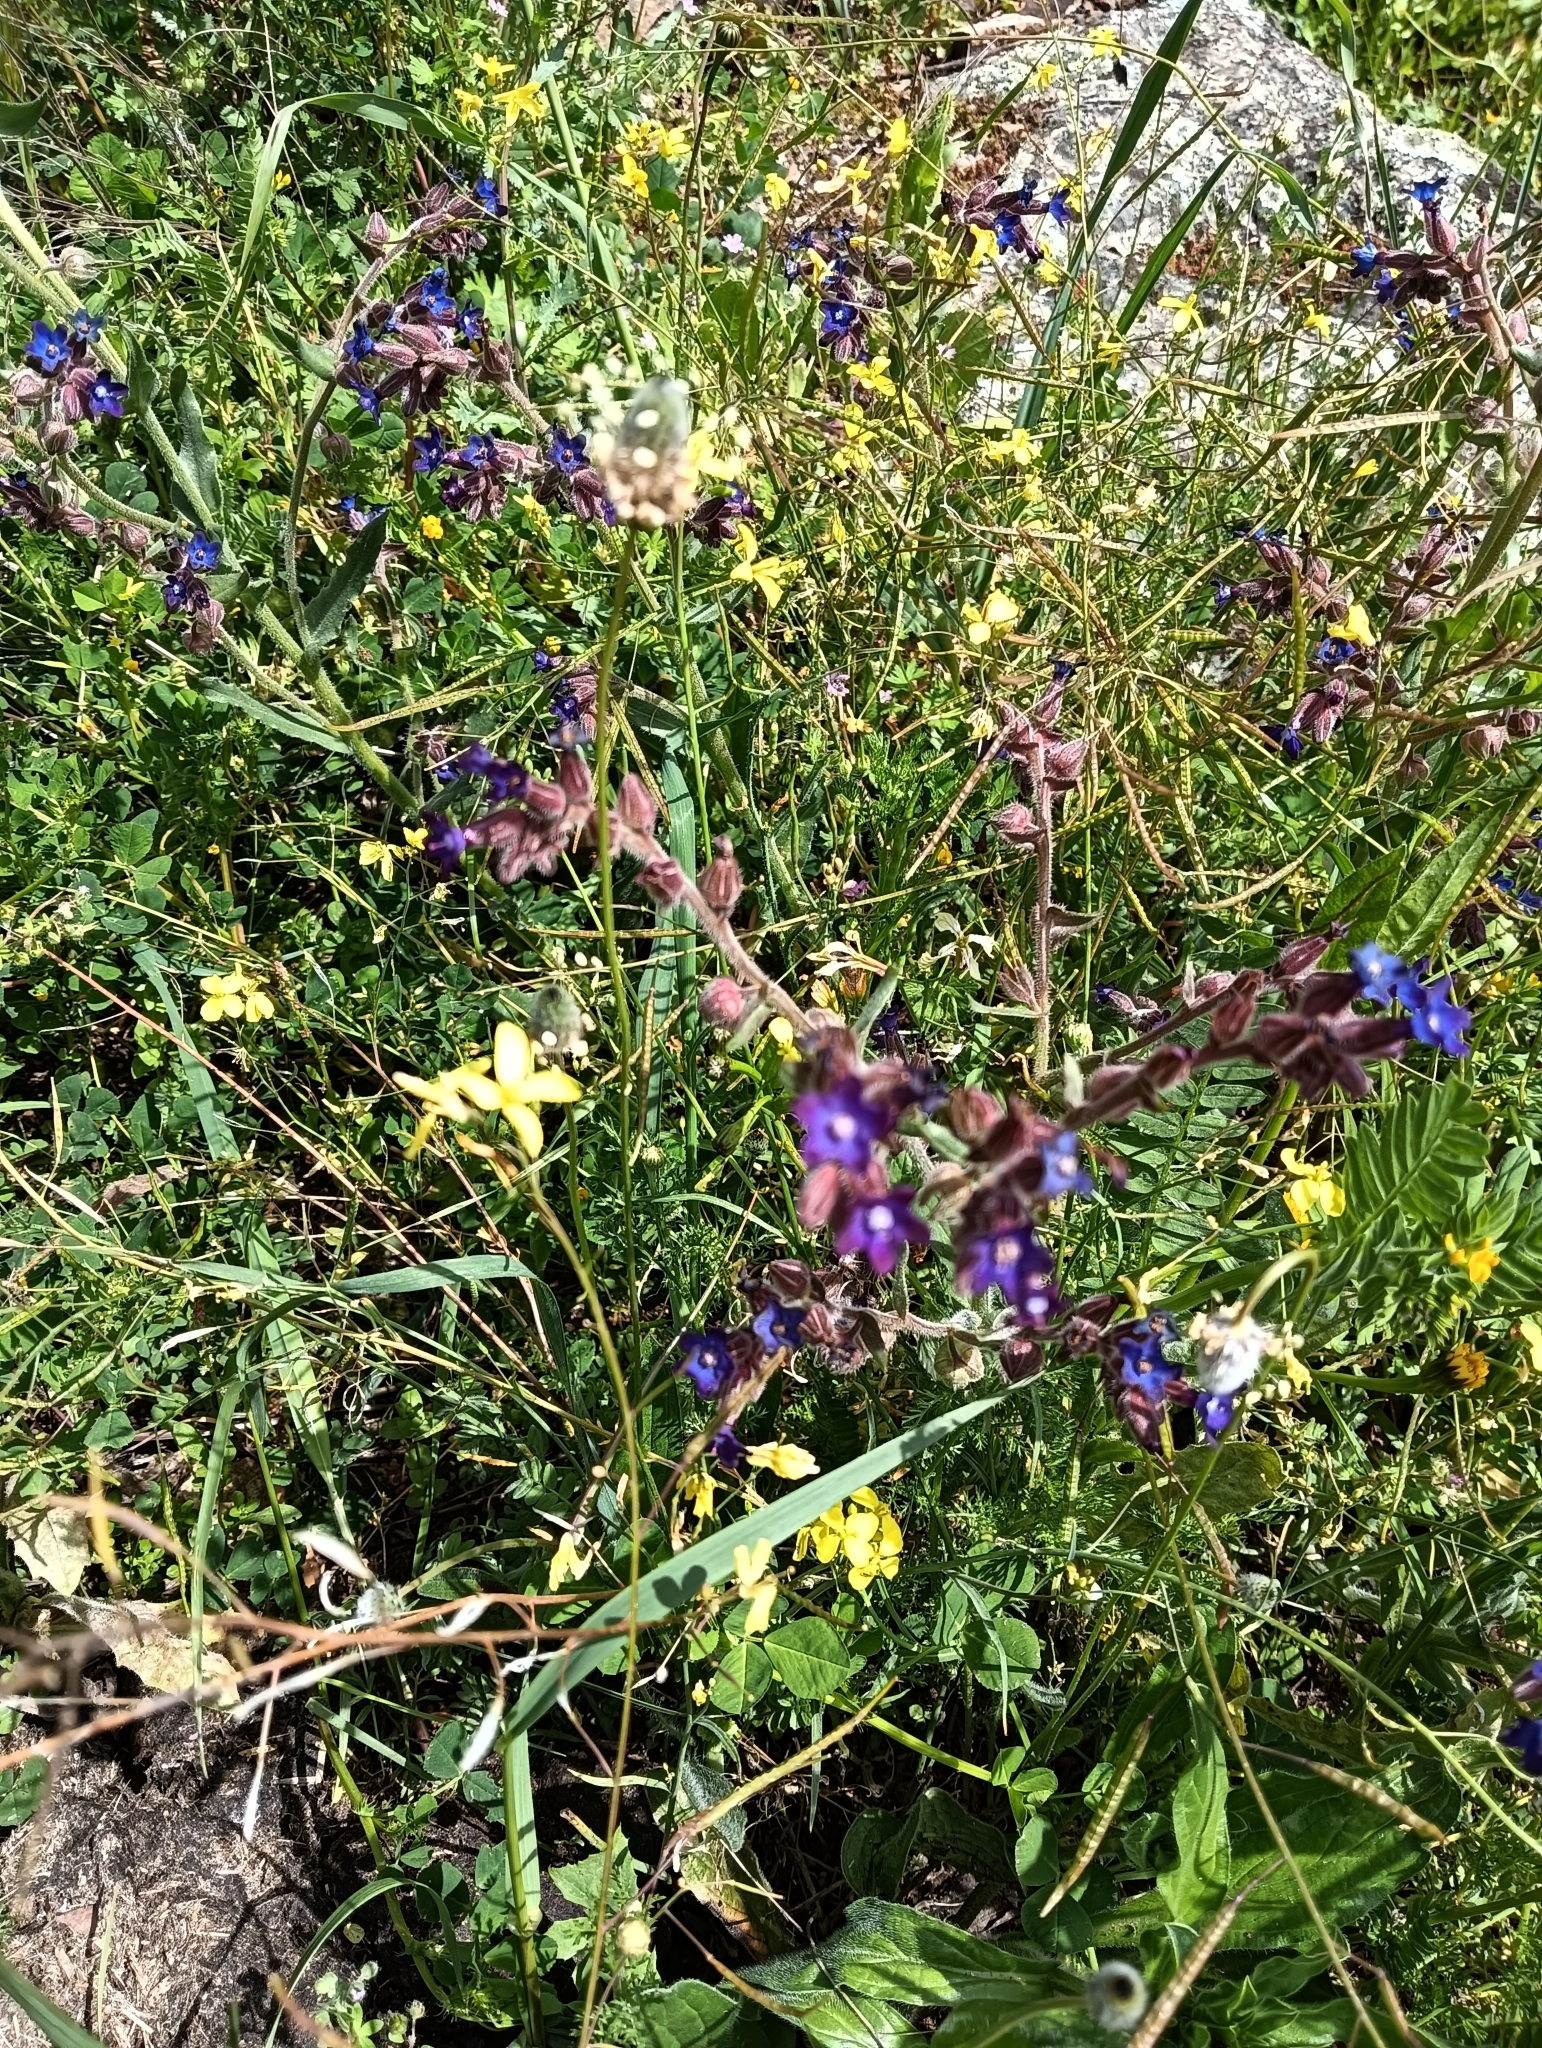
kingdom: Plantae
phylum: Tracheophyta
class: Magnoliopsida
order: Boraginales
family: Boraginaceae
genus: Anchusa
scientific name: Anchusa undulata
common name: Undulate alkanet
